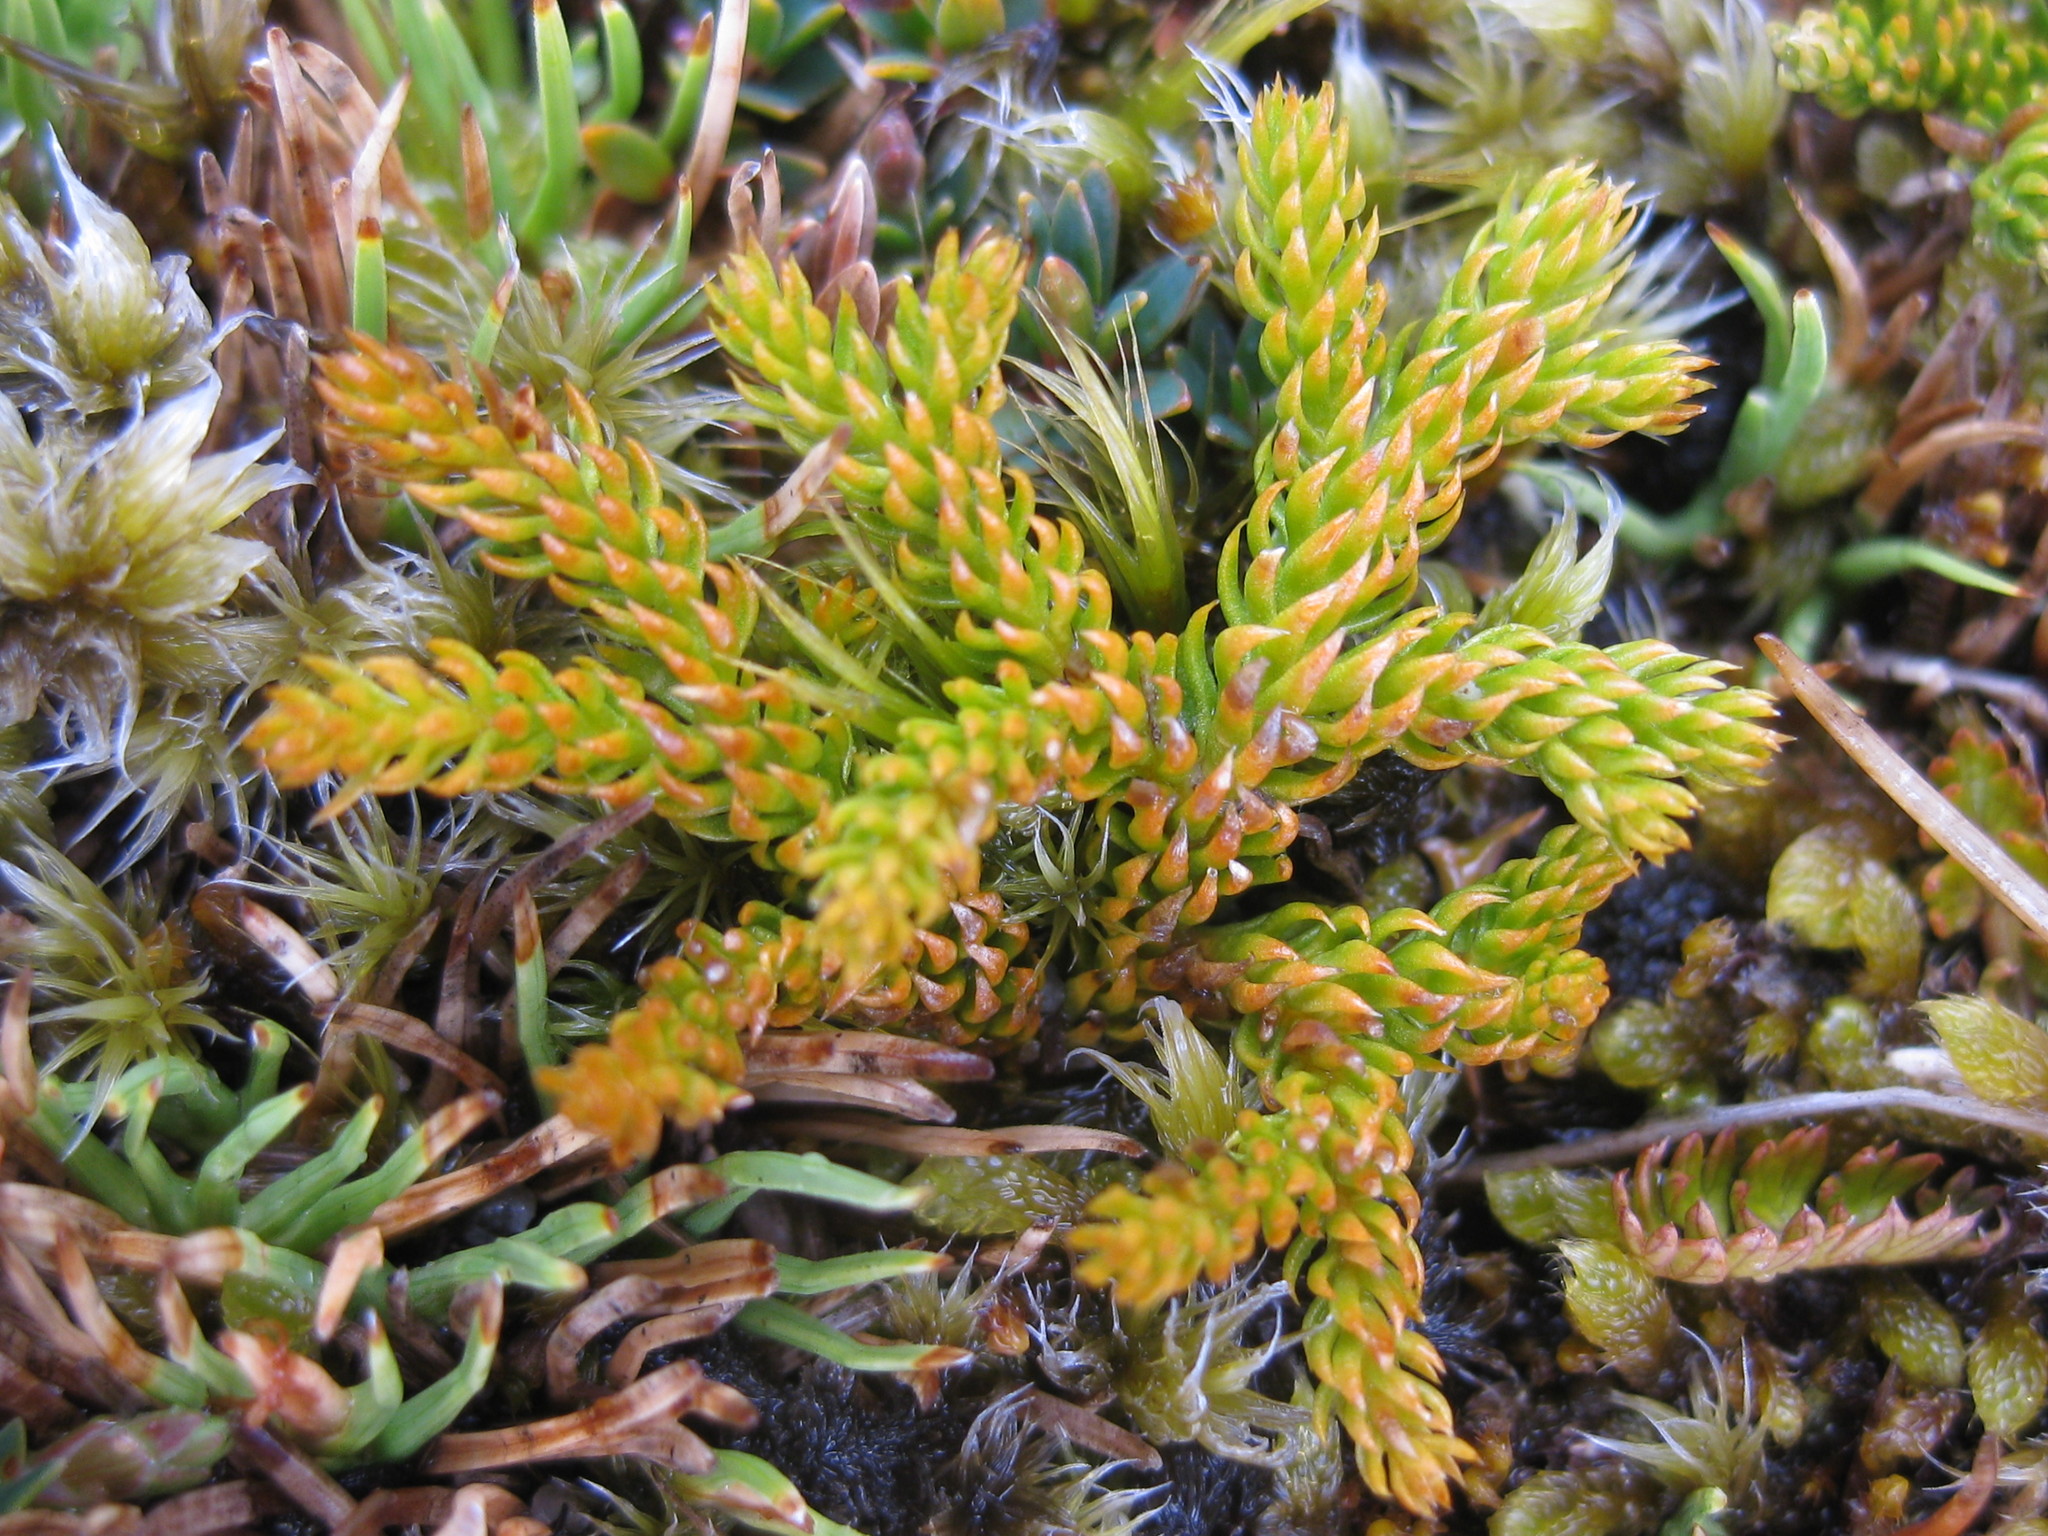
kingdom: Plantae
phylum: Tracheophyta
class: Lycopodiopsida
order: Lycopodiales
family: Lycopodiaceae
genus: Austrolycopodium
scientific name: Austrolycopodium fastigiatum
